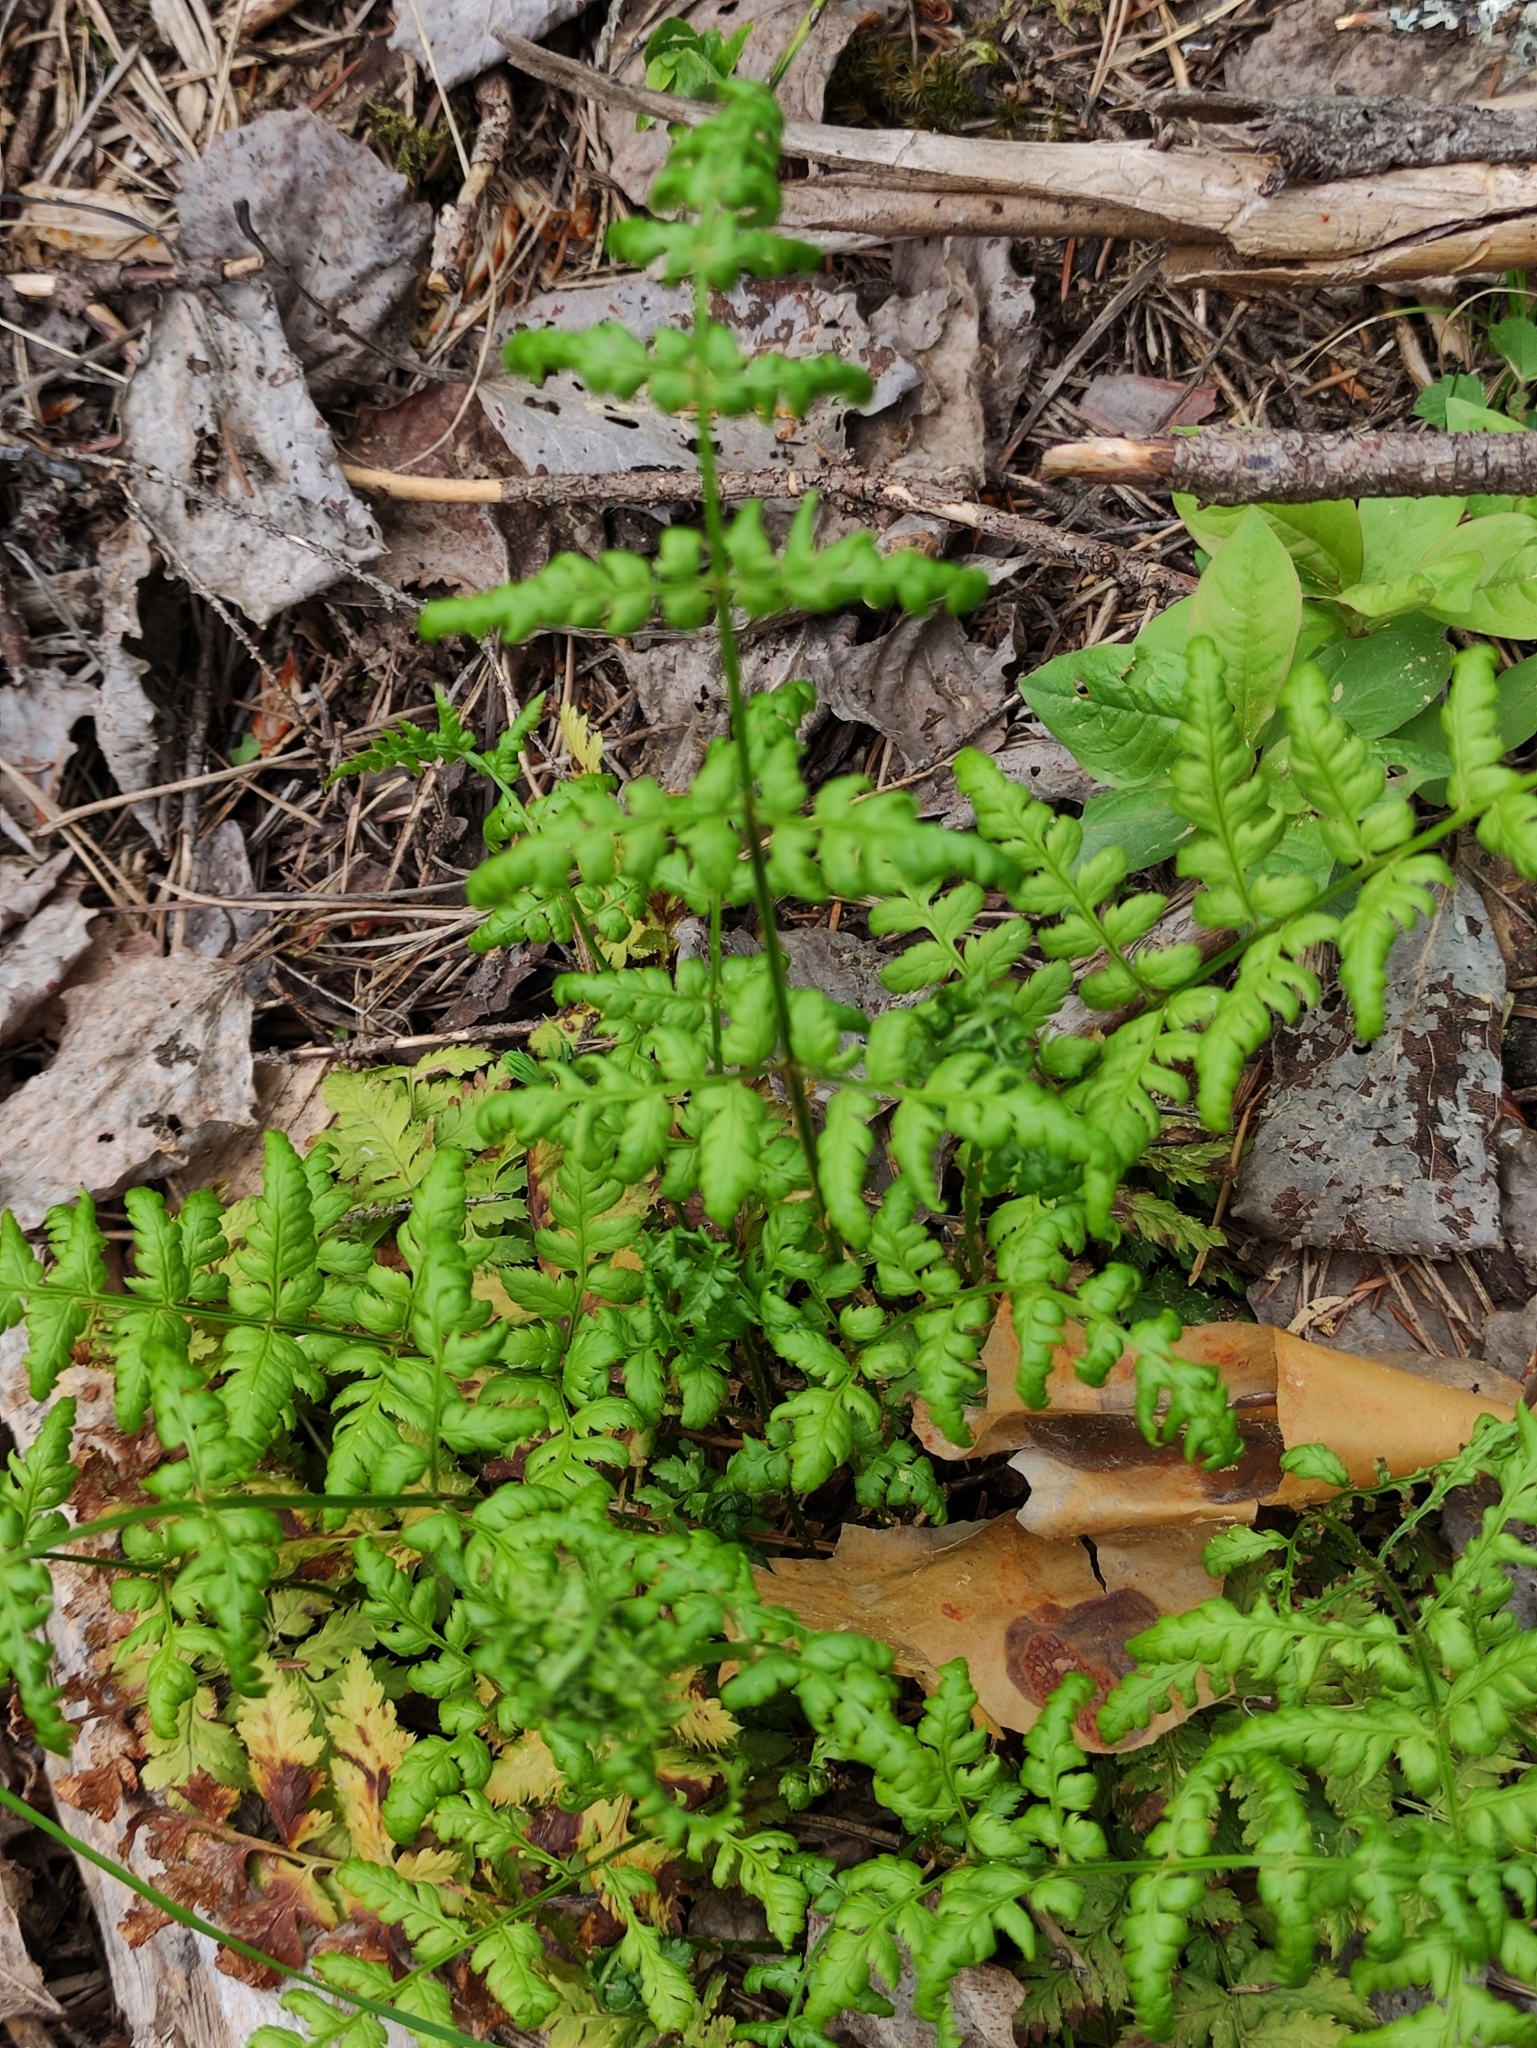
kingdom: Plantae
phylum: Tracheophyta
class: Polypodiopsida
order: Polypodiales
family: Dryopteridaceae
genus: Dryopteris
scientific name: Dryopteris carthusiana
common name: Narrow buckler-fern
